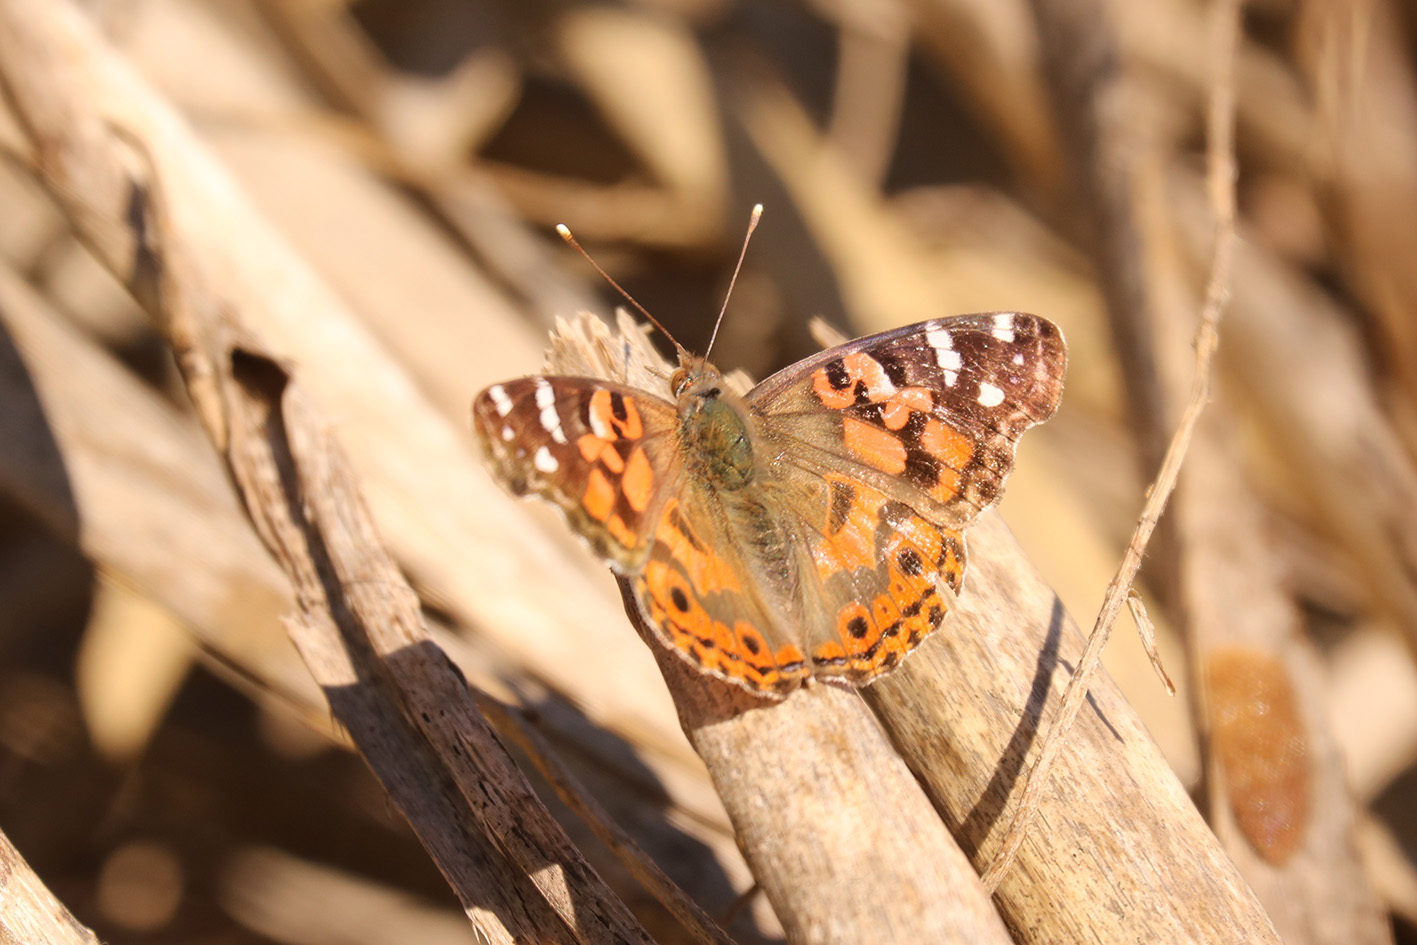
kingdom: Animalia
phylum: Arthropoda
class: Insecta
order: Lepidoptera
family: Nymphalidae
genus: Vanessa
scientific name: Vanessa braziliensis
